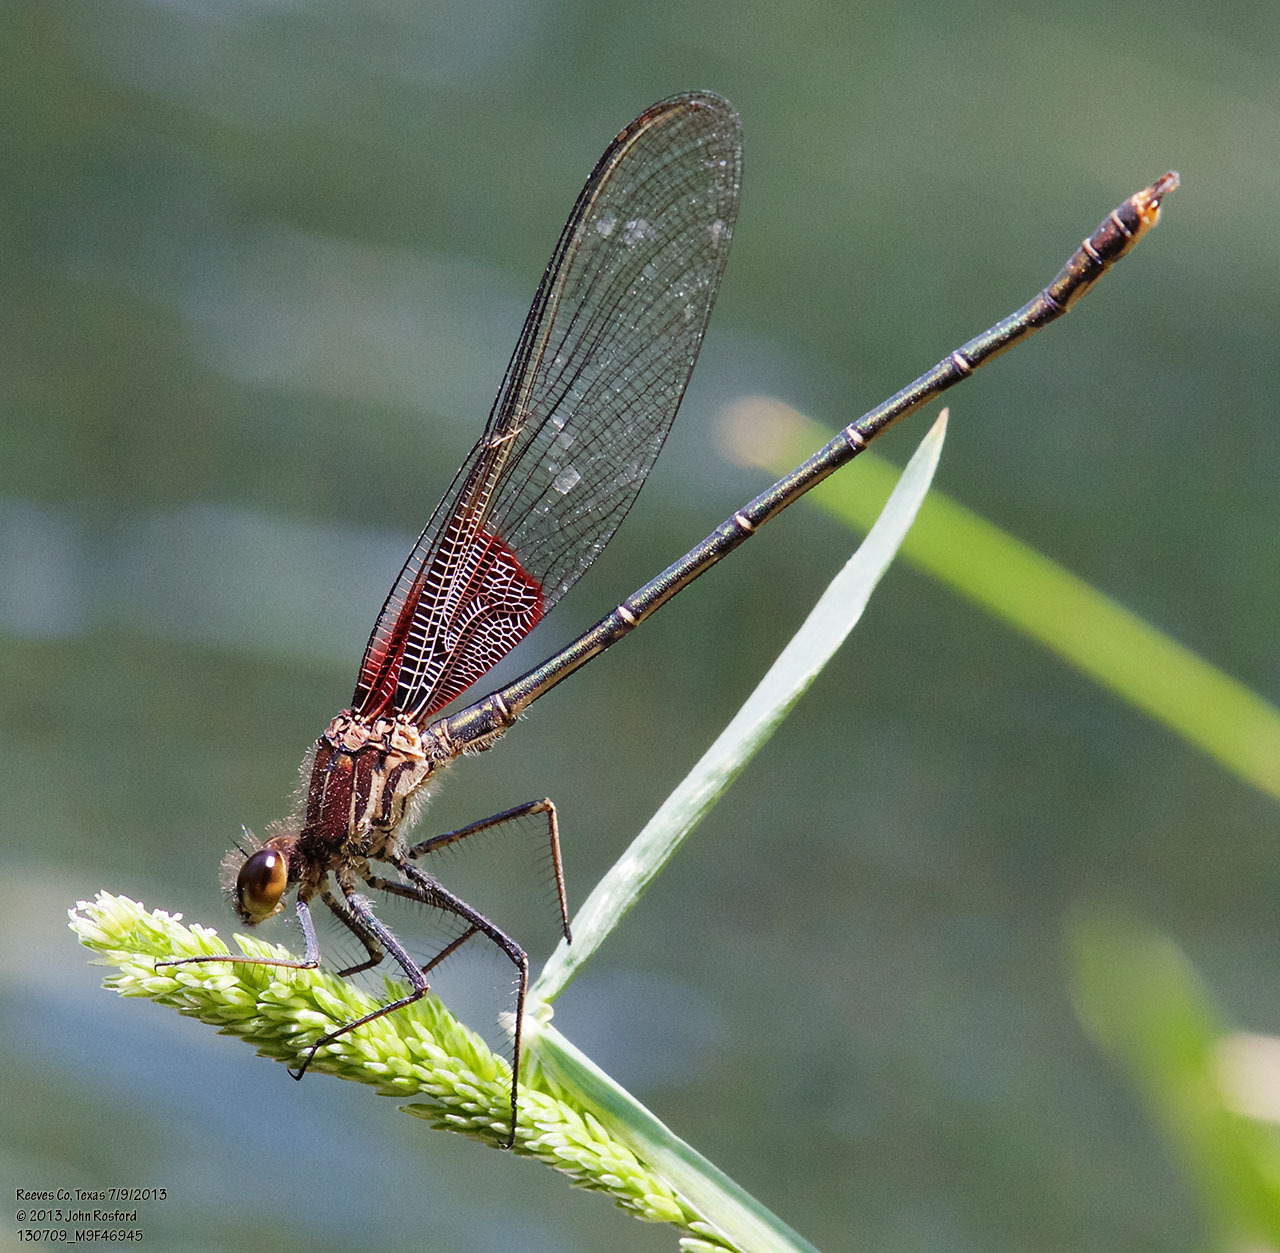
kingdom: Animalia
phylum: Arthropoda
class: Insecta
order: Odonata
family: Calopterygidae
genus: Hetaerina
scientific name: Hetaerina americana
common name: American rubyspot
